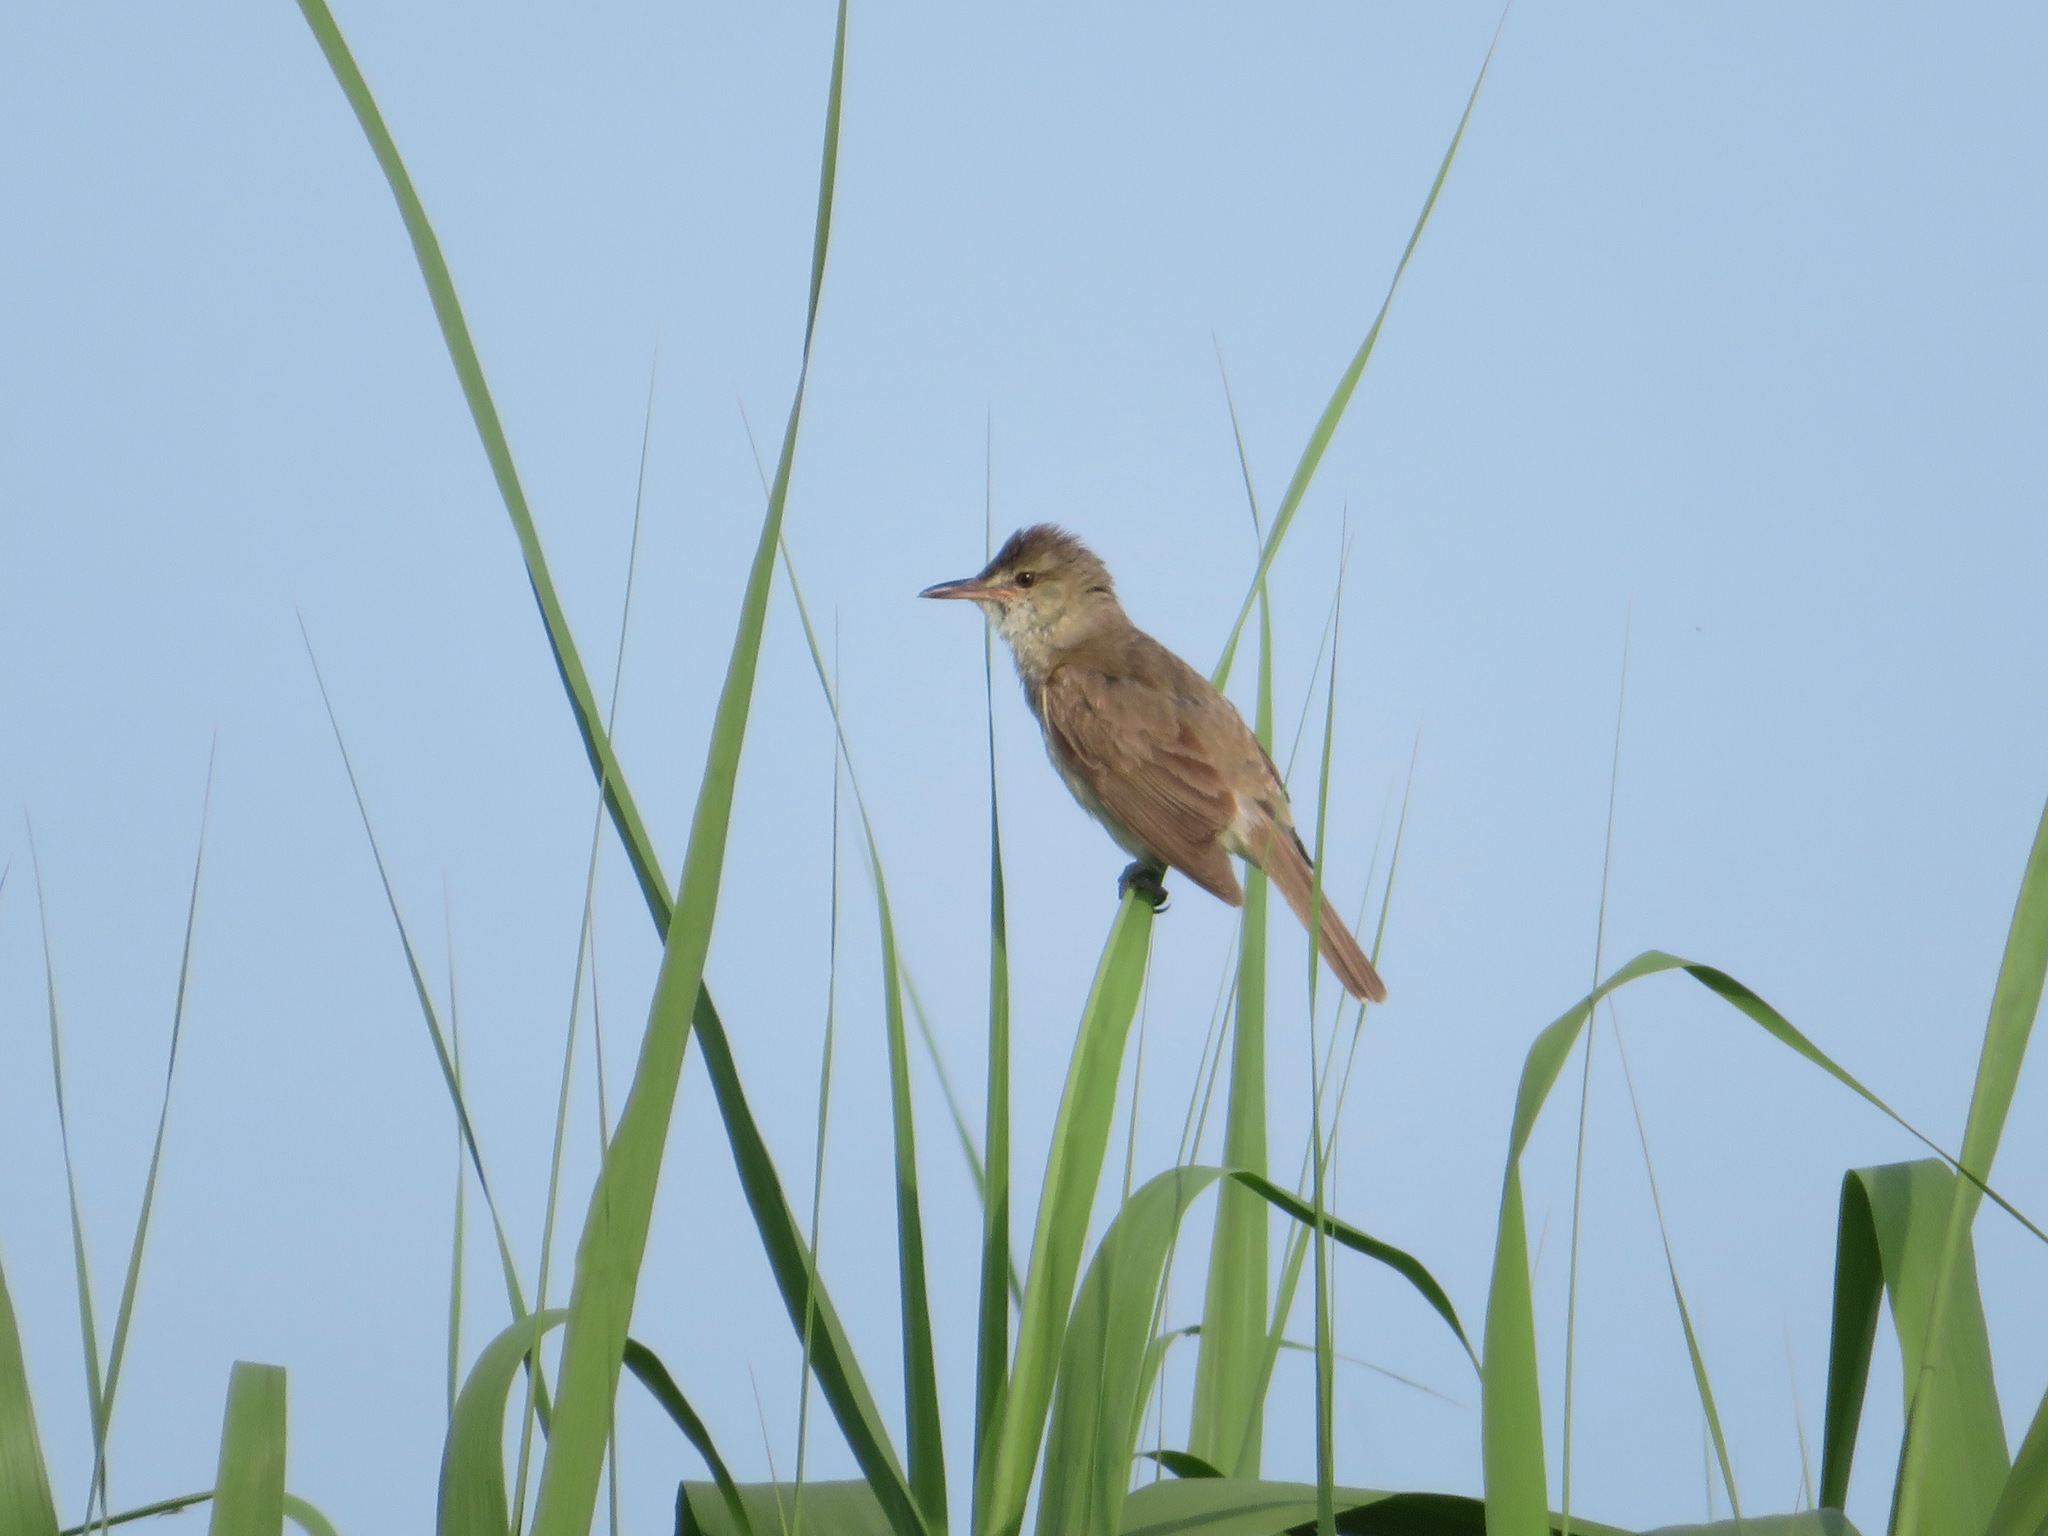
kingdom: Animalia
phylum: Chordata
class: Aves
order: Passeriformes
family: Acrocephalidae
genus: Acrocephalus
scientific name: Acrocephalus orientalis
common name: Oriental reed warbler
